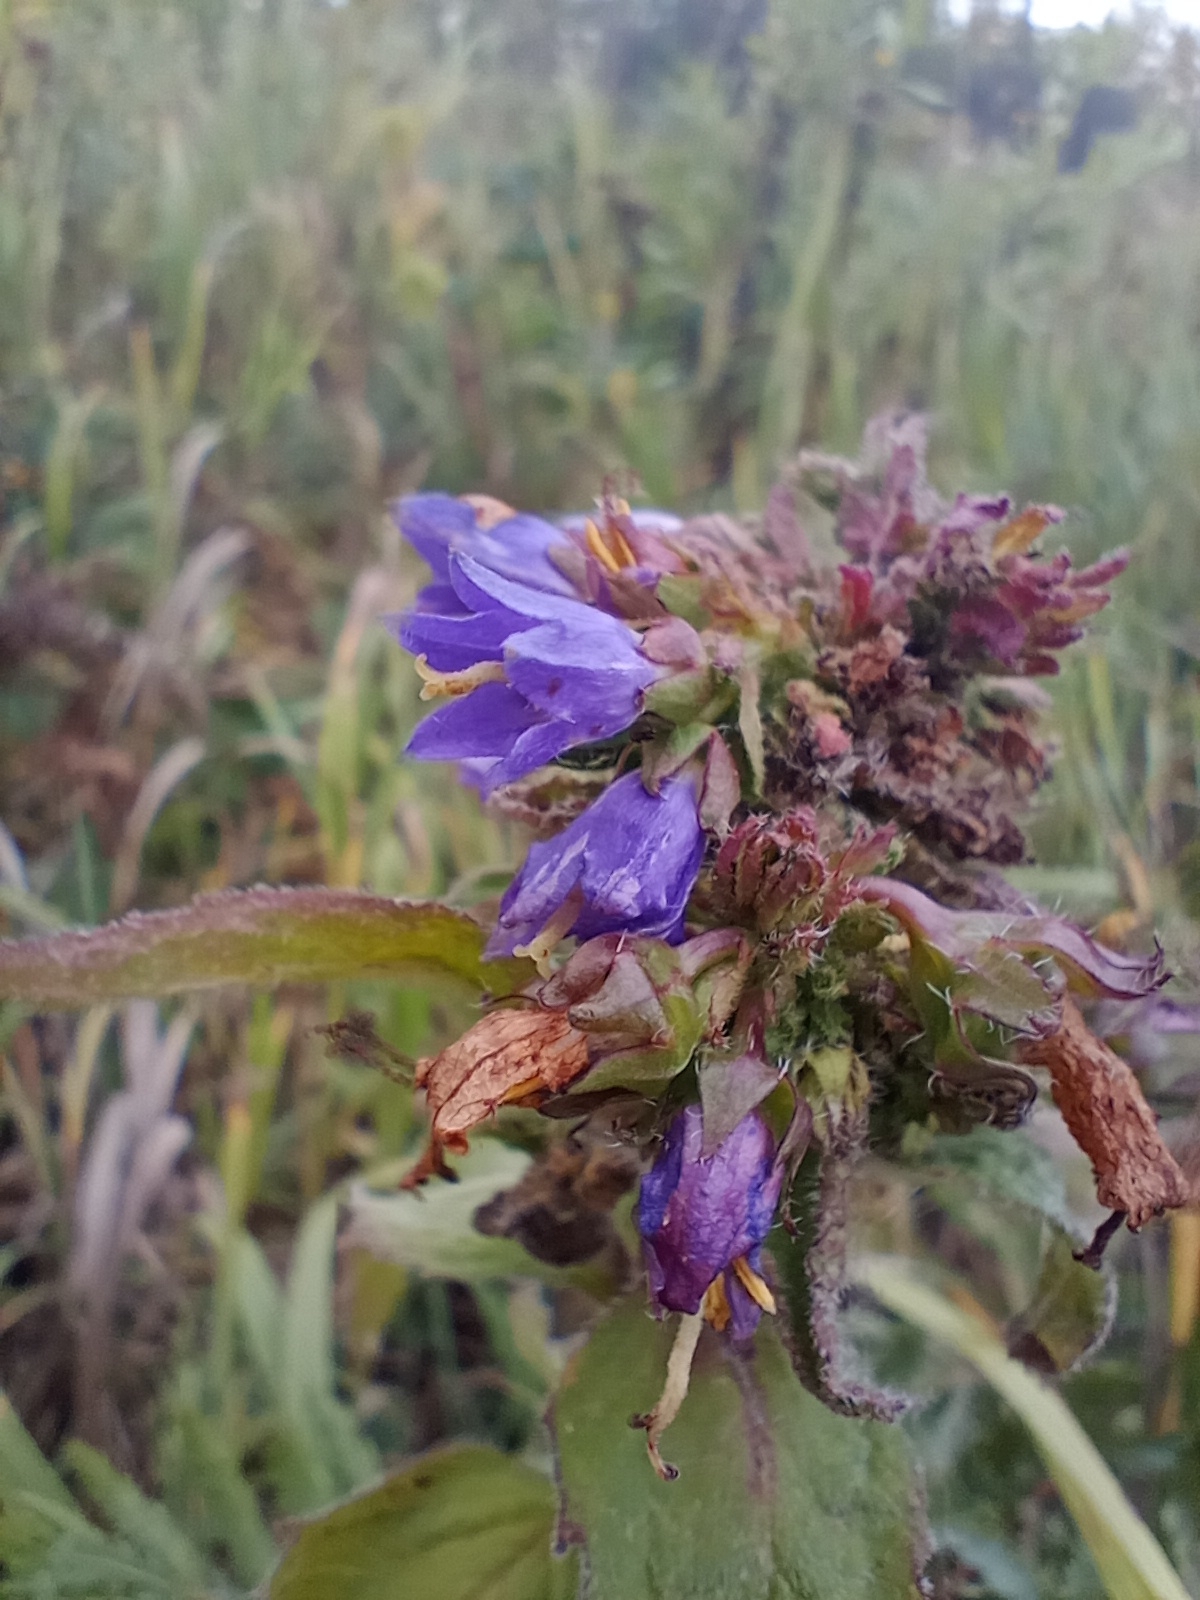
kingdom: Plantae
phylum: Tracheophyta
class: Magnoliopsida
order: Asterales
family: Campanulaceae
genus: Campanula
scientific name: Campanula trachelium
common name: Nettle-leaved bellflower
